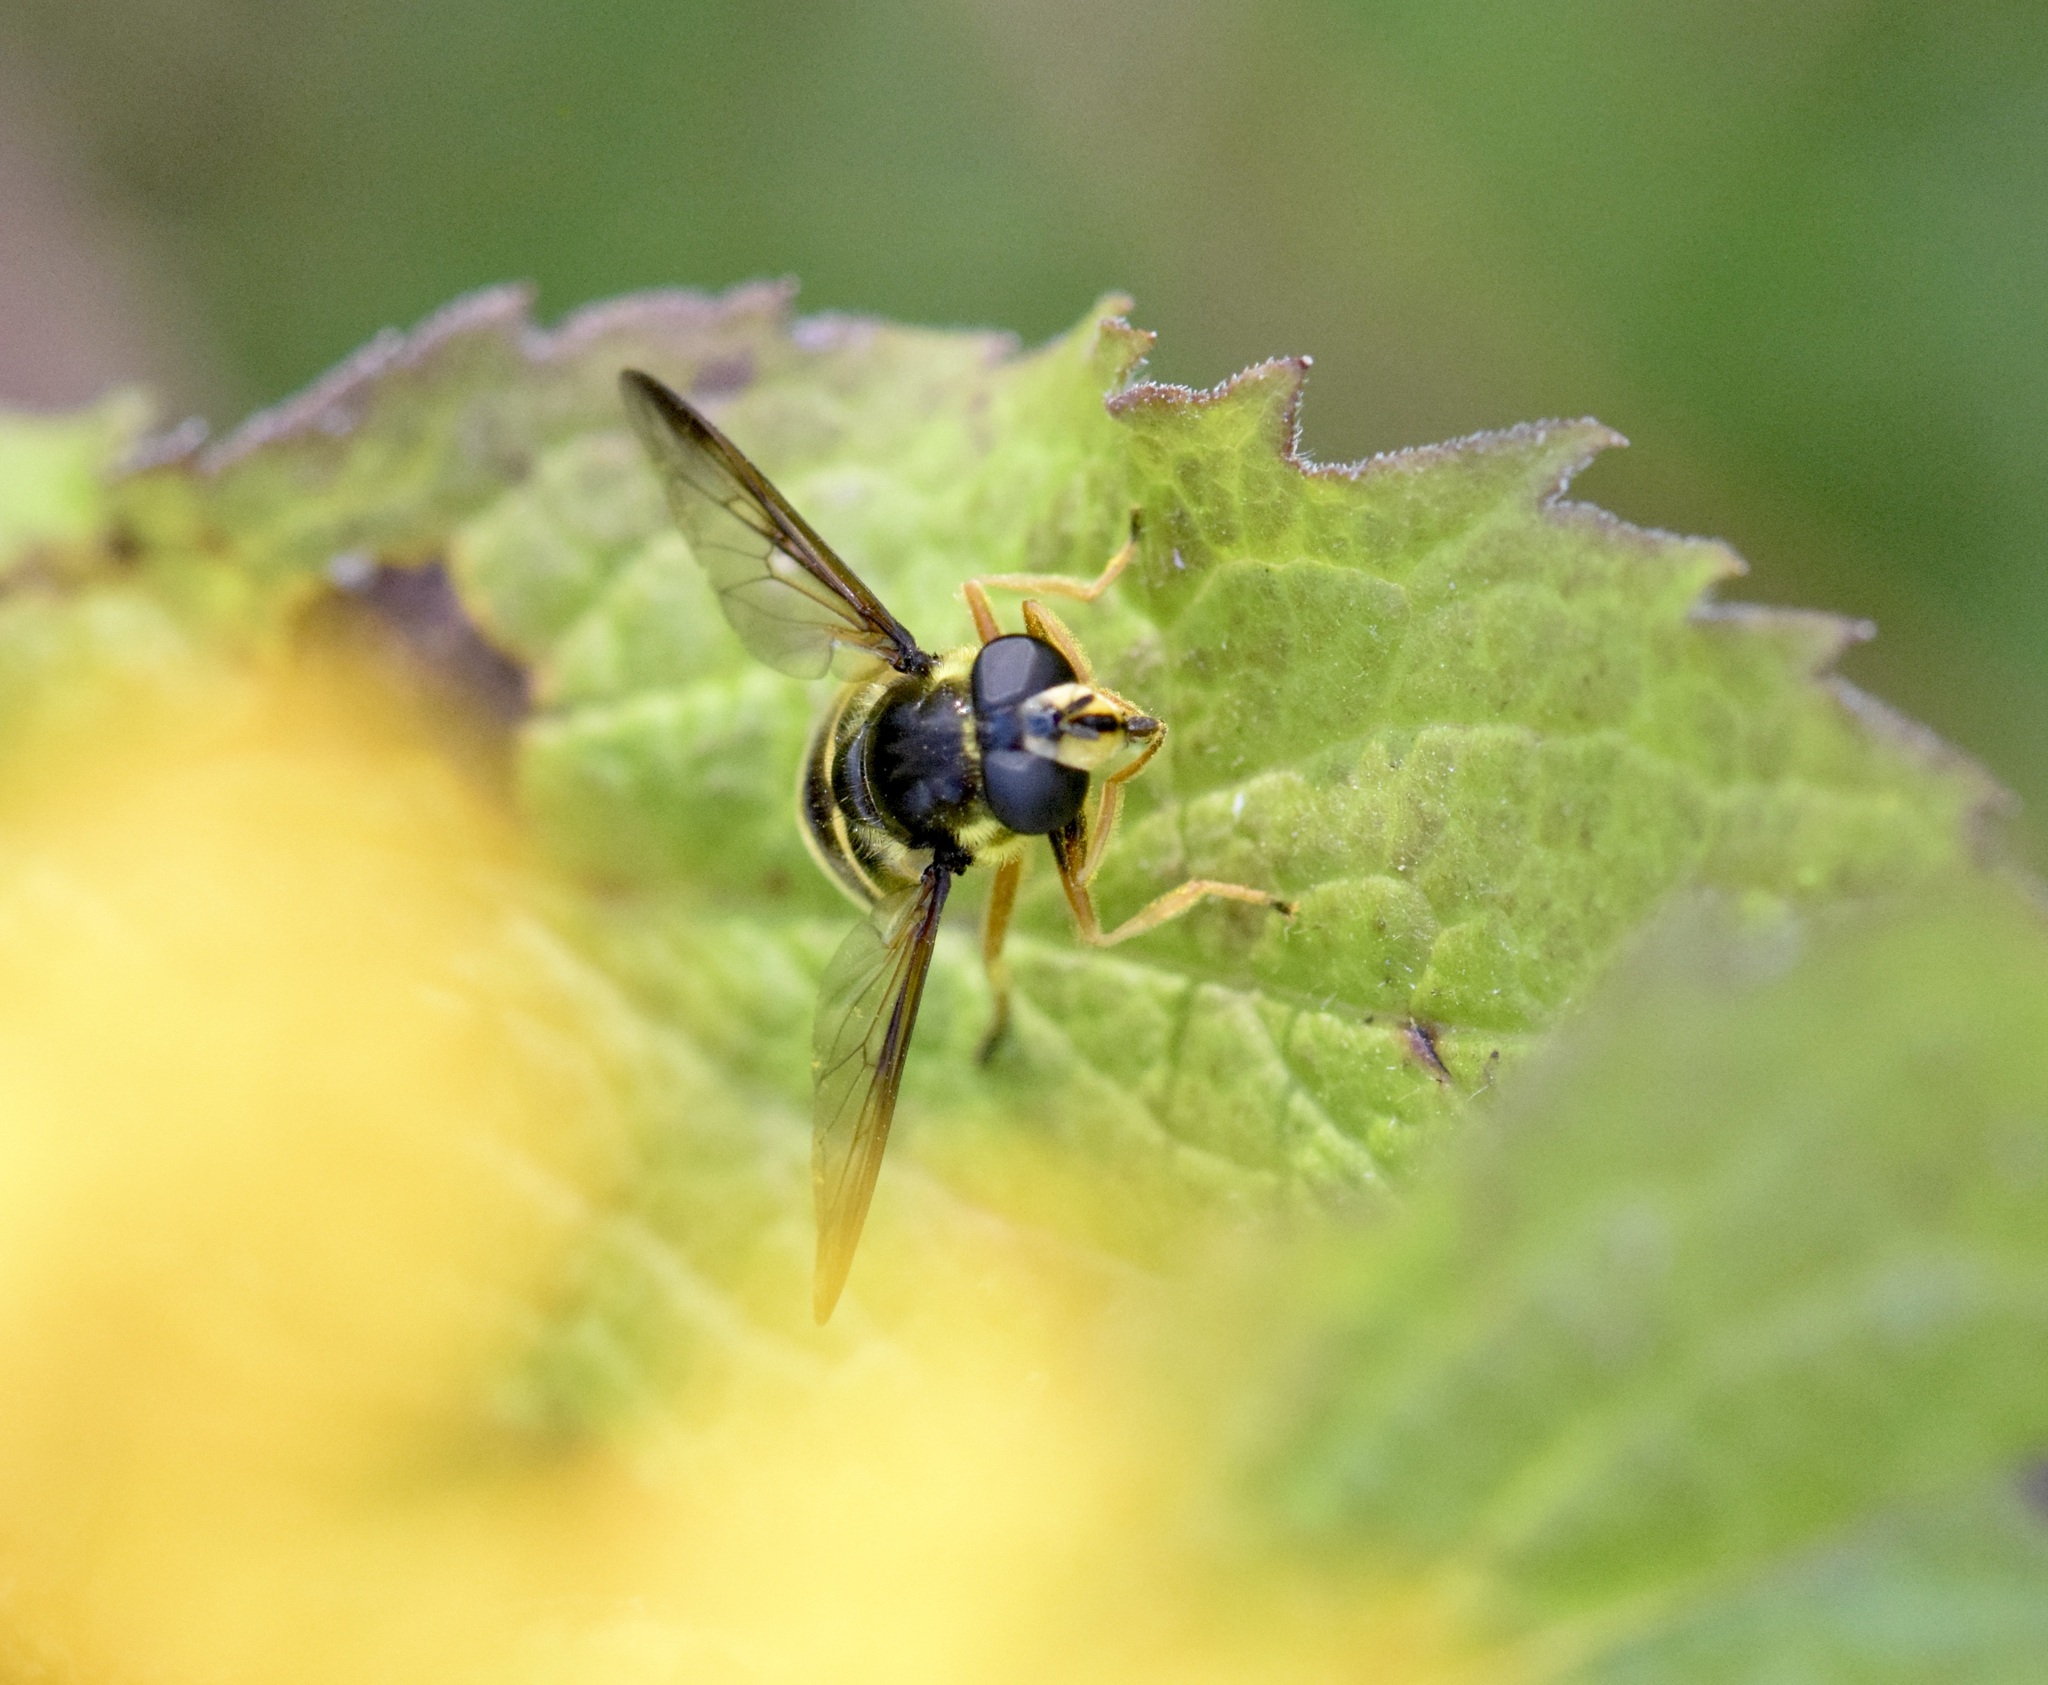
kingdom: Animalia
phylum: Arthropoda
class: Insecta
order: Diptera
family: Syrphidae
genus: Sericomyia
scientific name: Sericomyia chrysotoxoides
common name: Oblique-banded pond fly
